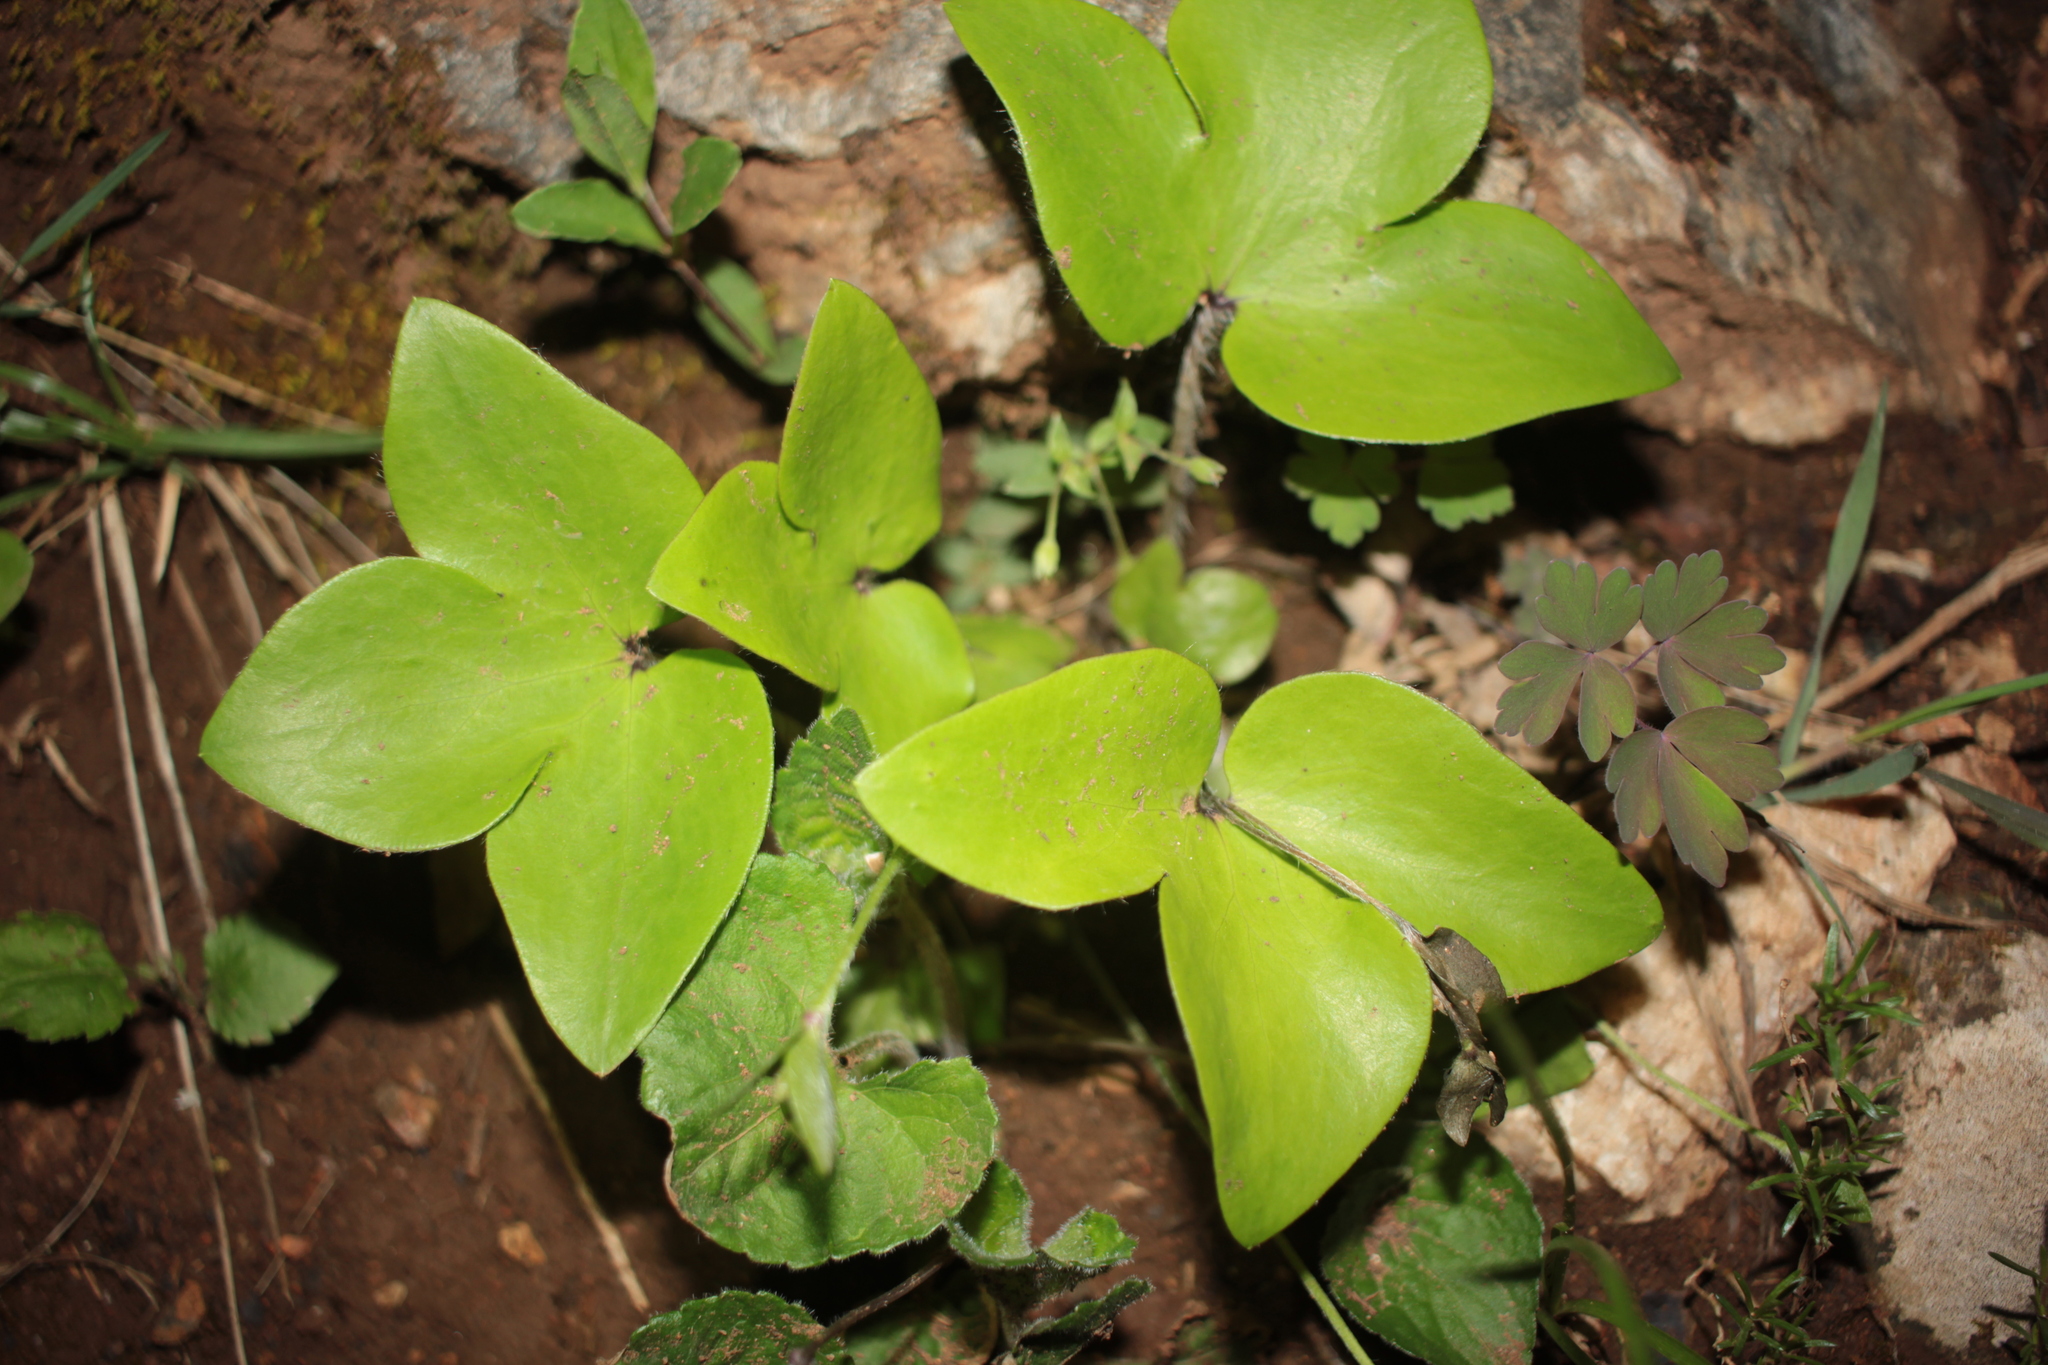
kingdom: Plantae
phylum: Tracheophyta
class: Magnoliopsida
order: Ranunculales
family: Ranunculaceae
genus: Hepatica
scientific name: Hepatica acutiloba
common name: Sharp-lobed hepatica
